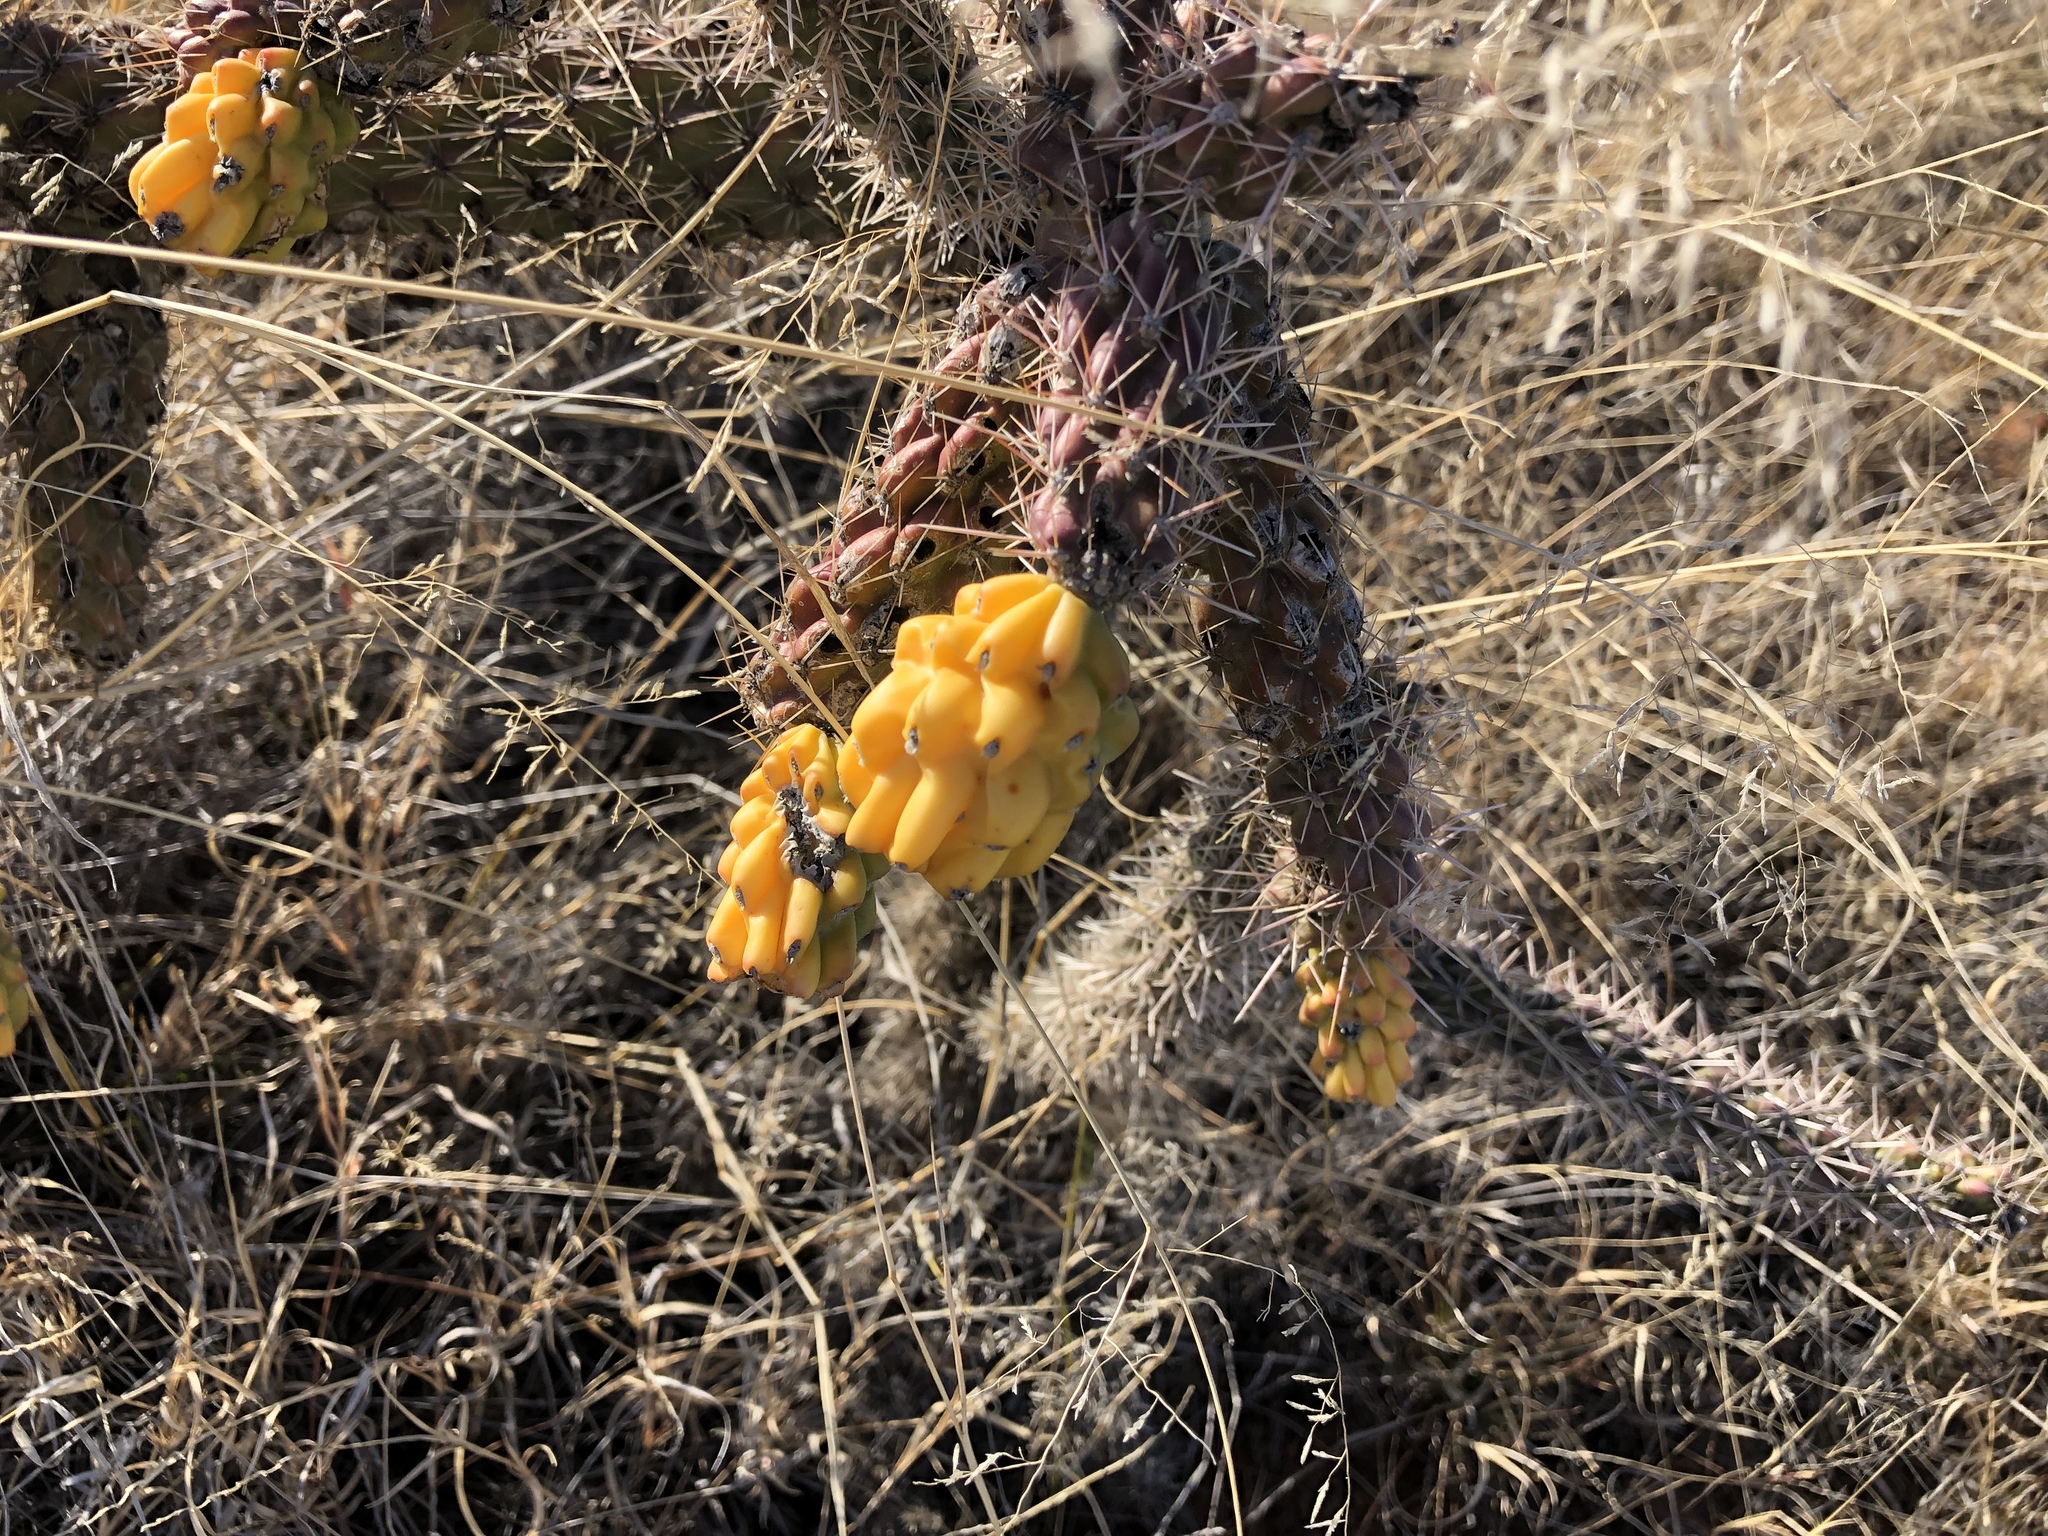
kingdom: Plantae
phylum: Tracheophyta
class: Magnoliopsida
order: Caryophyllales
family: Cactaceae
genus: Cylindropuntia
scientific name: Cylindropuntia imbricata
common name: Candelabrum cactus
